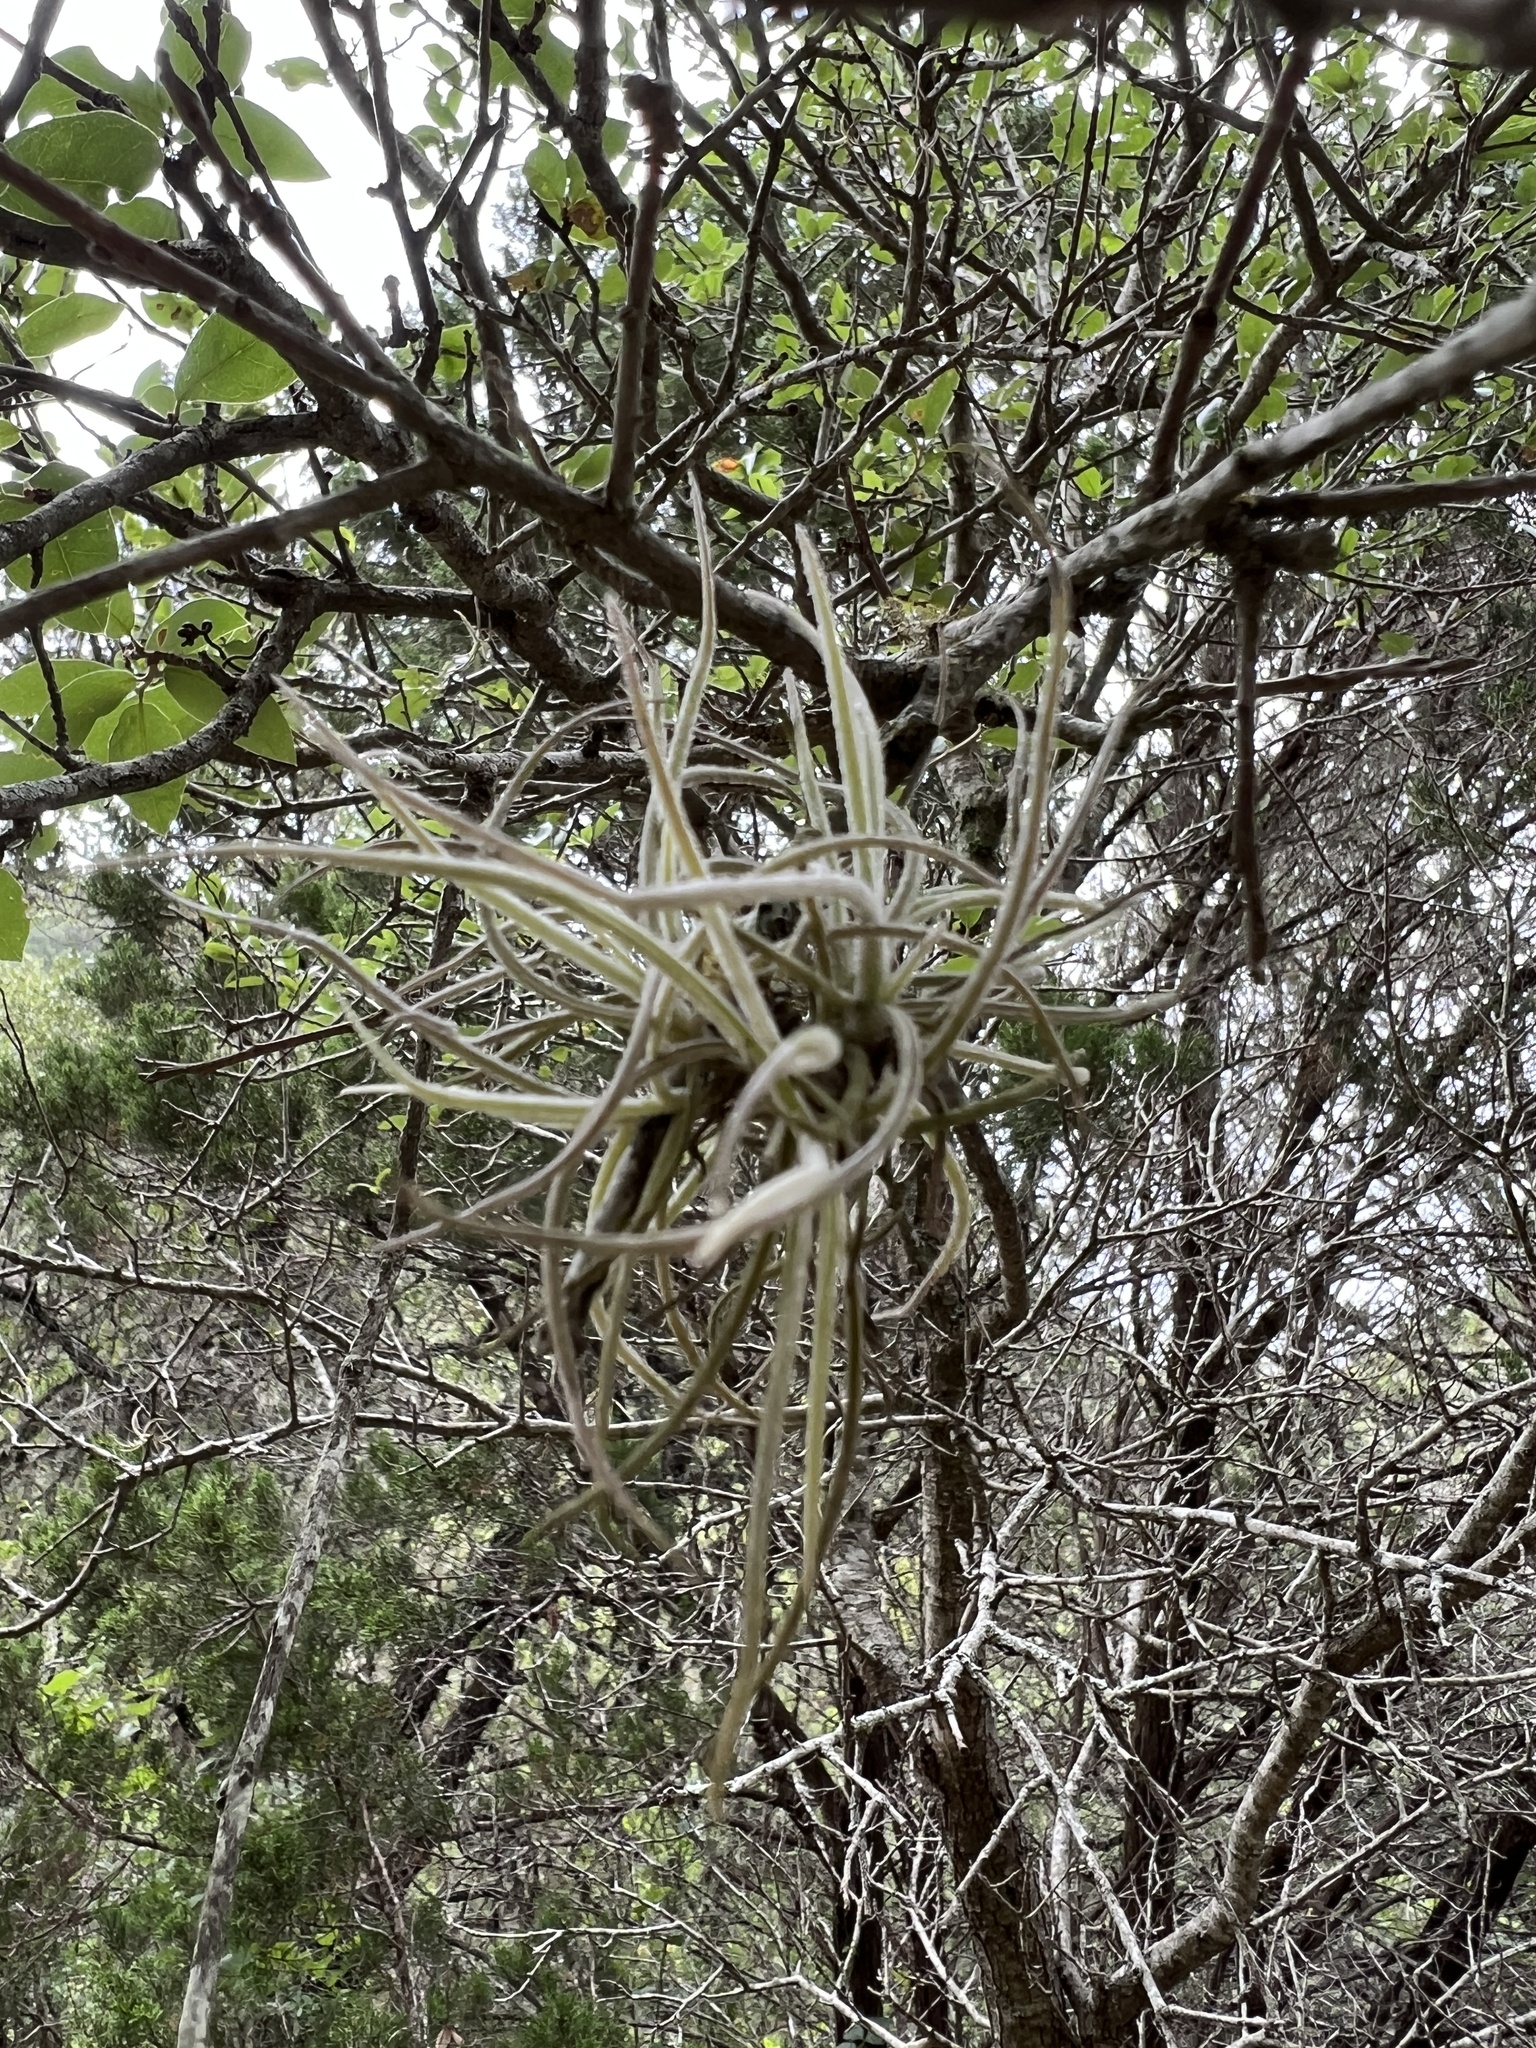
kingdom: Plantae
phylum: Tracheophyta
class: Liliopsida
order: Poales
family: Bromeliaceae
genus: Tillandsia
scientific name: Tillandsia recurvata
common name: Small ballmoss
